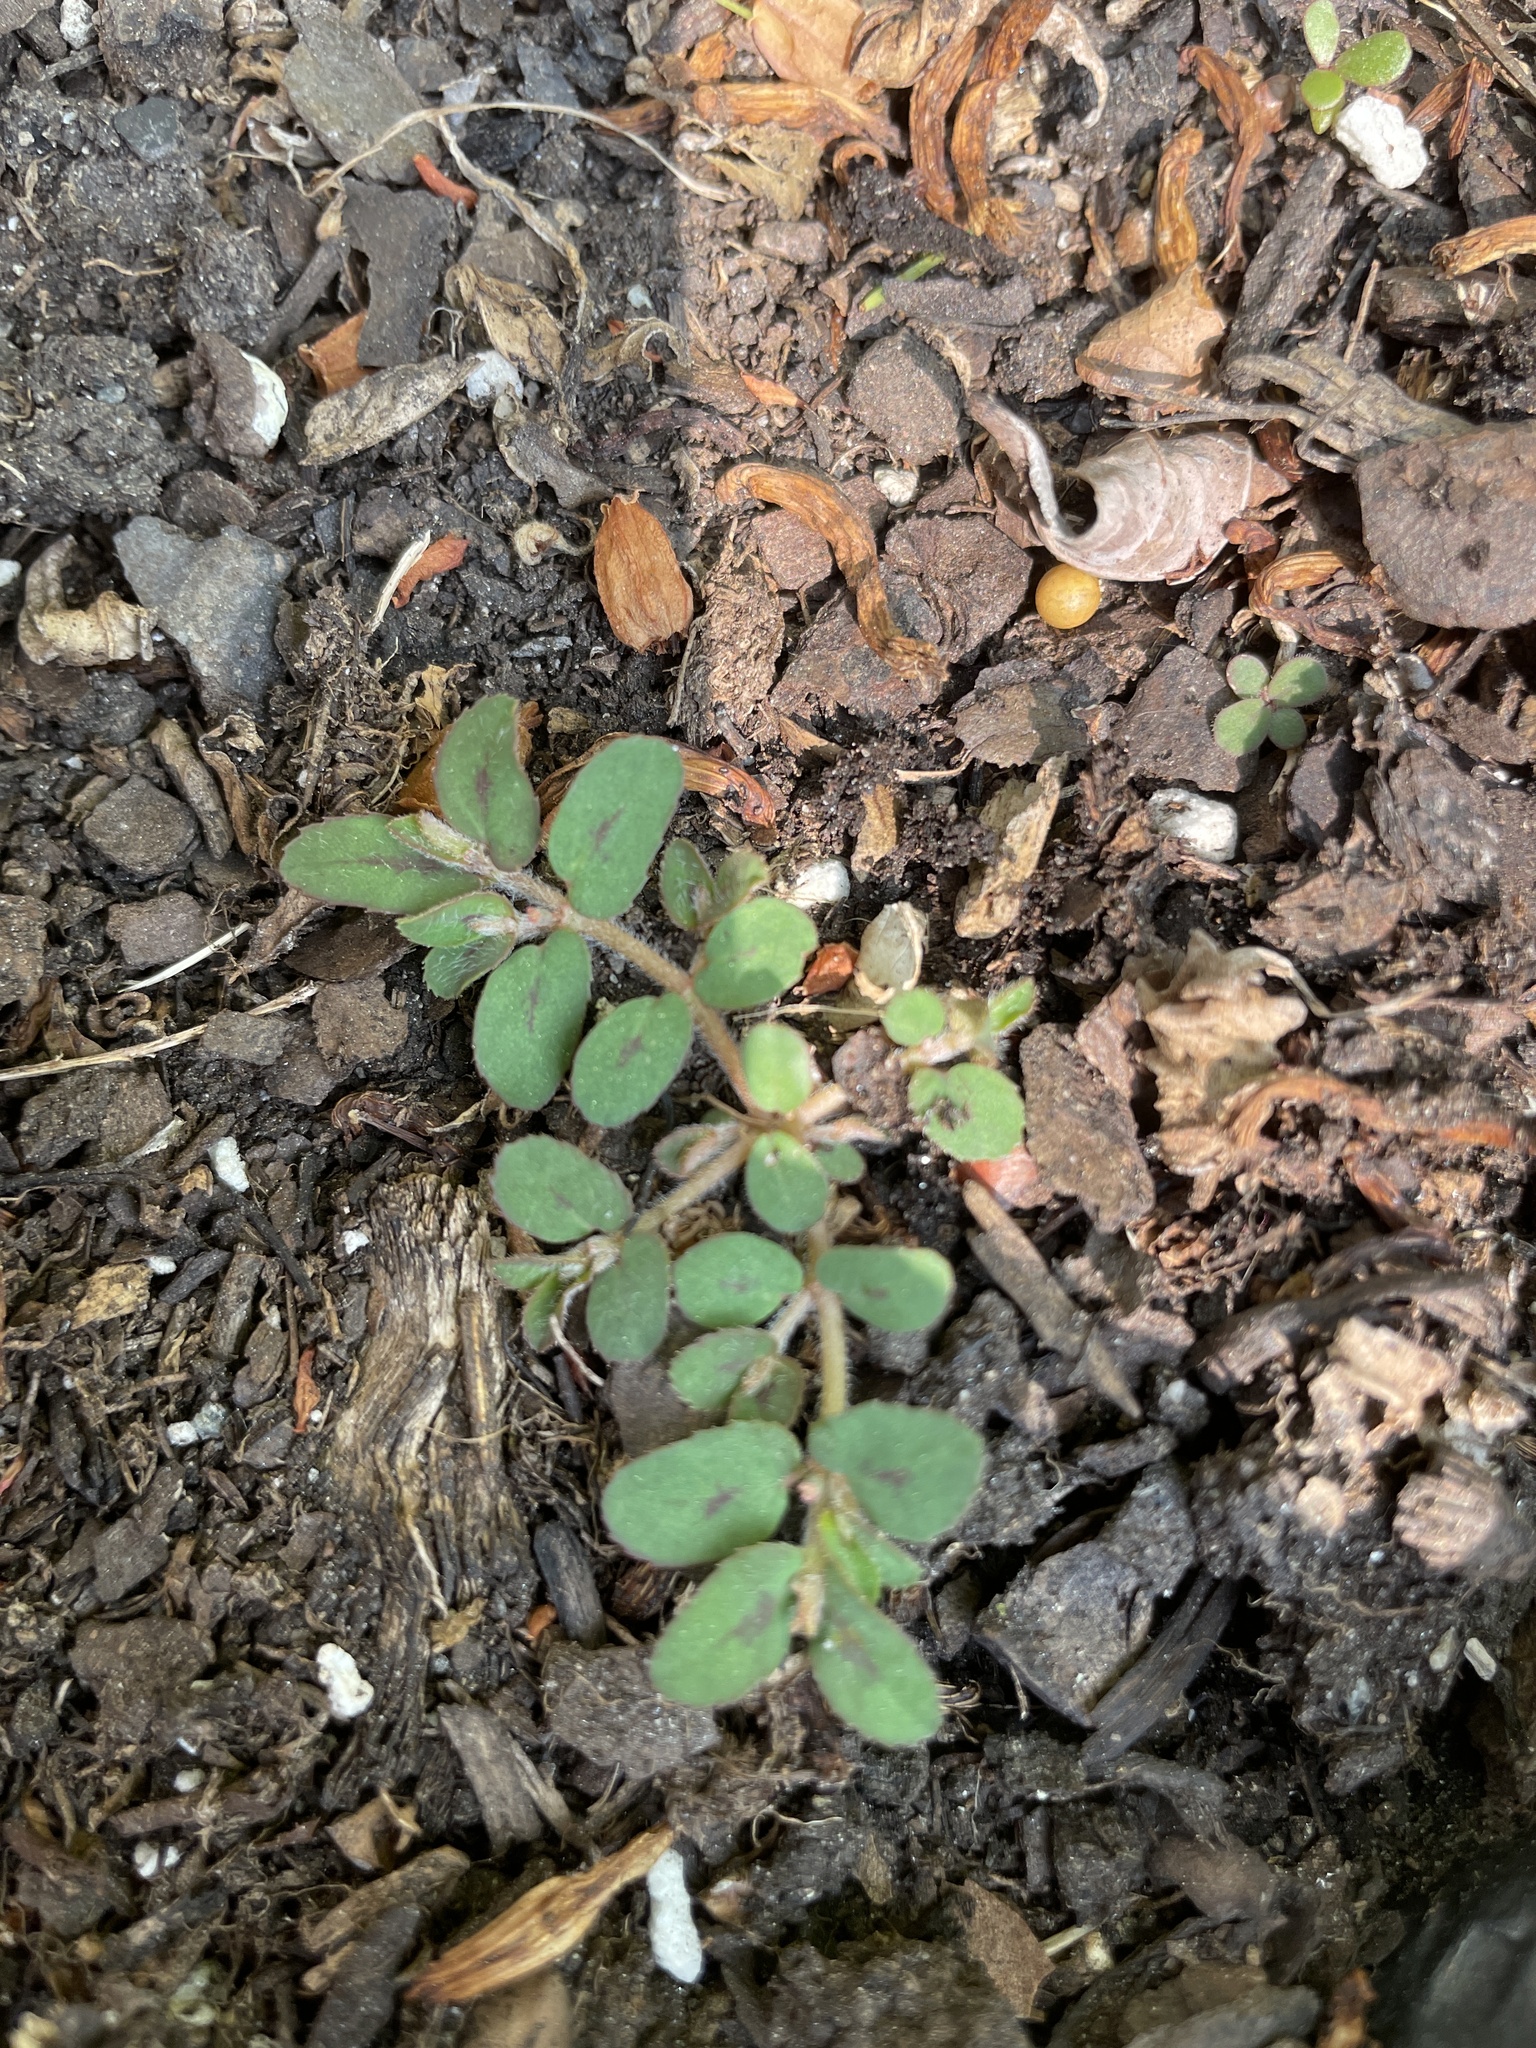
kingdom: Plantae
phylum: Tracheophyta
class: Magnoliopsida
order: Malpighiales
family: Euphorbiaceae
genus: Euphorbia
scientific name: Euphorbia maculata
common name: Spotted spurge
